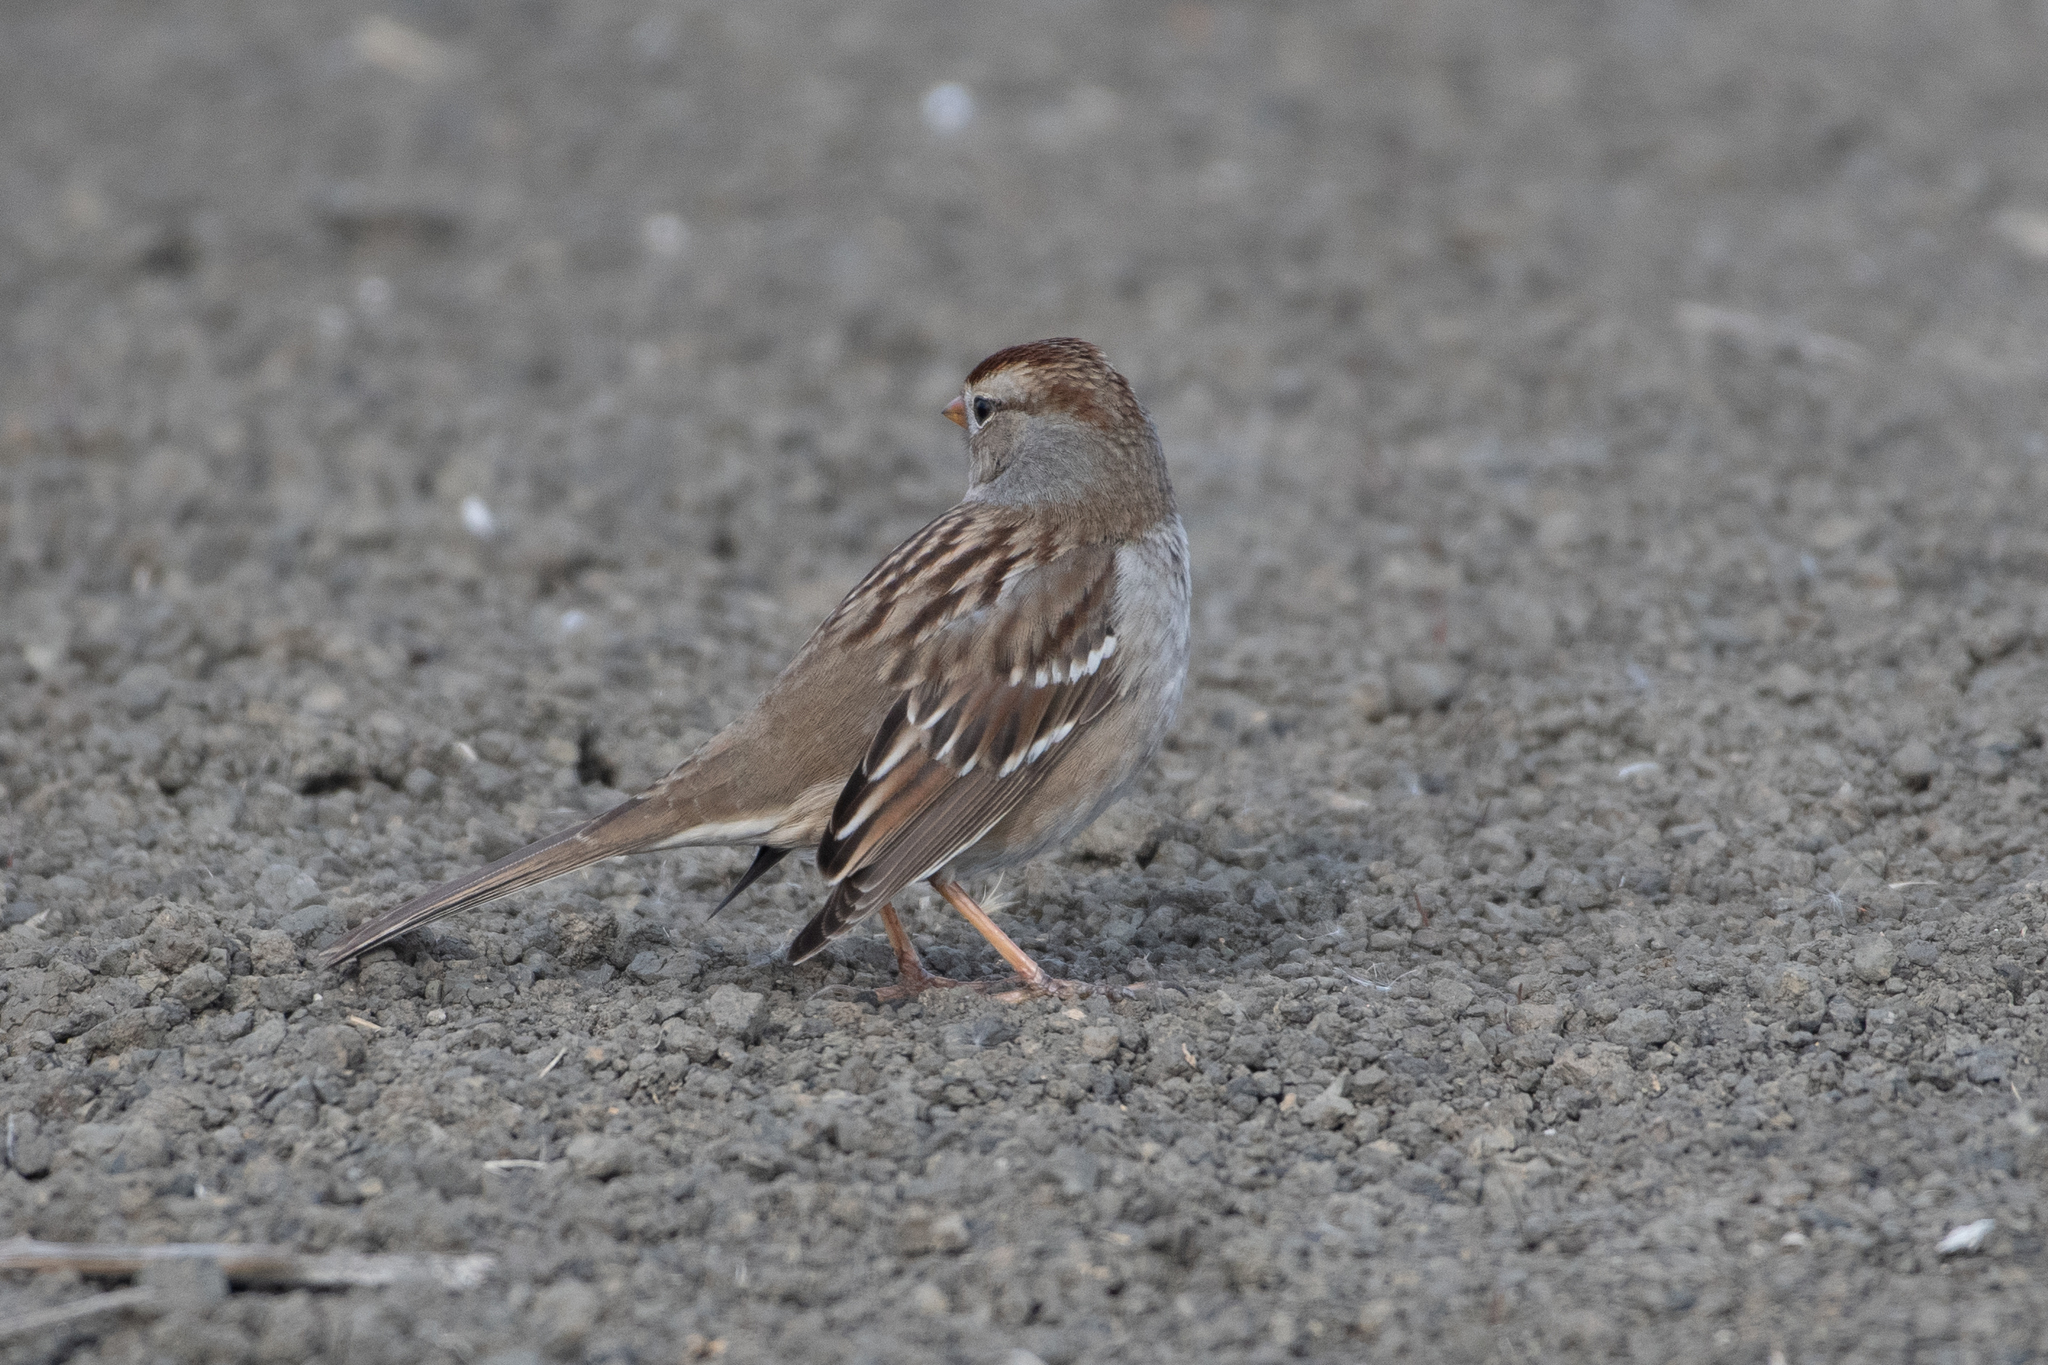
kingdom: Animalia
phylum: Chordata
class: Aves
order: Passeriformes
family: Passerellidae
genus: Zonotrichia
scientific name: Zonotrichia leucophrys
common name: White-crowned sparrow
